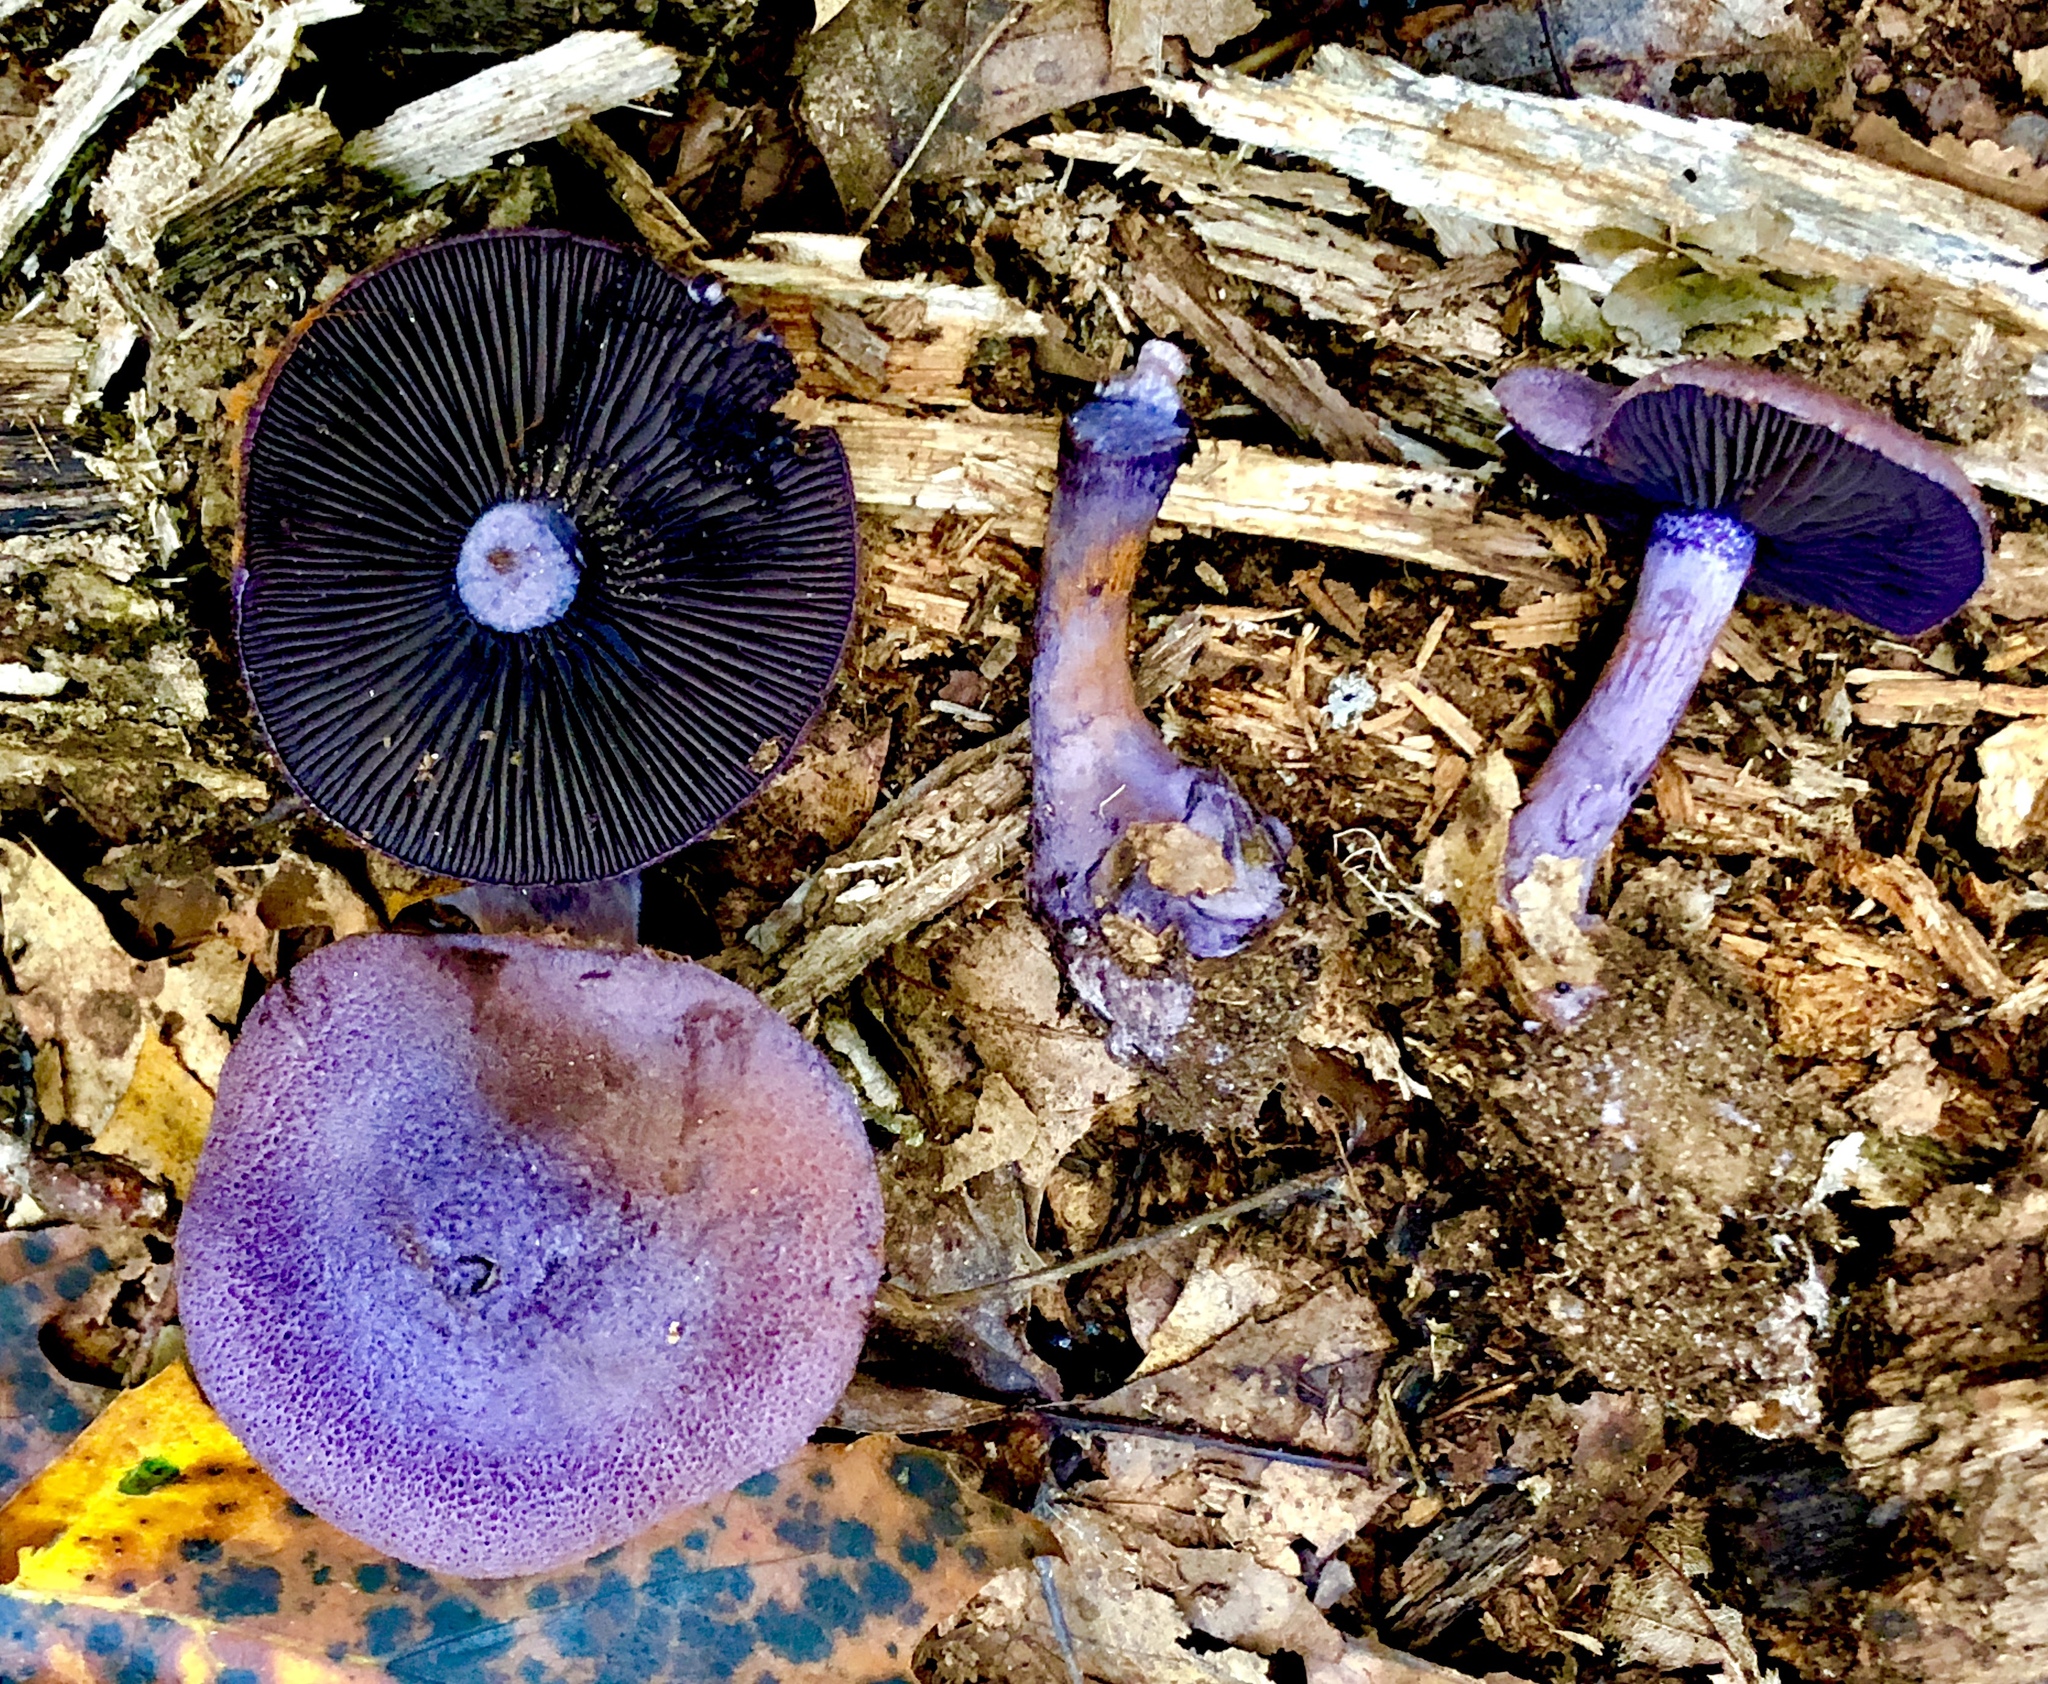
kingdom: Fungi
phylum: Basidiomycota
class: Agaricomycetes
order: Agaricales
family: Cortinariaceae
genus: Cortinarius
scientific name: Cortinarius violaceus
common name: Violet webcap
